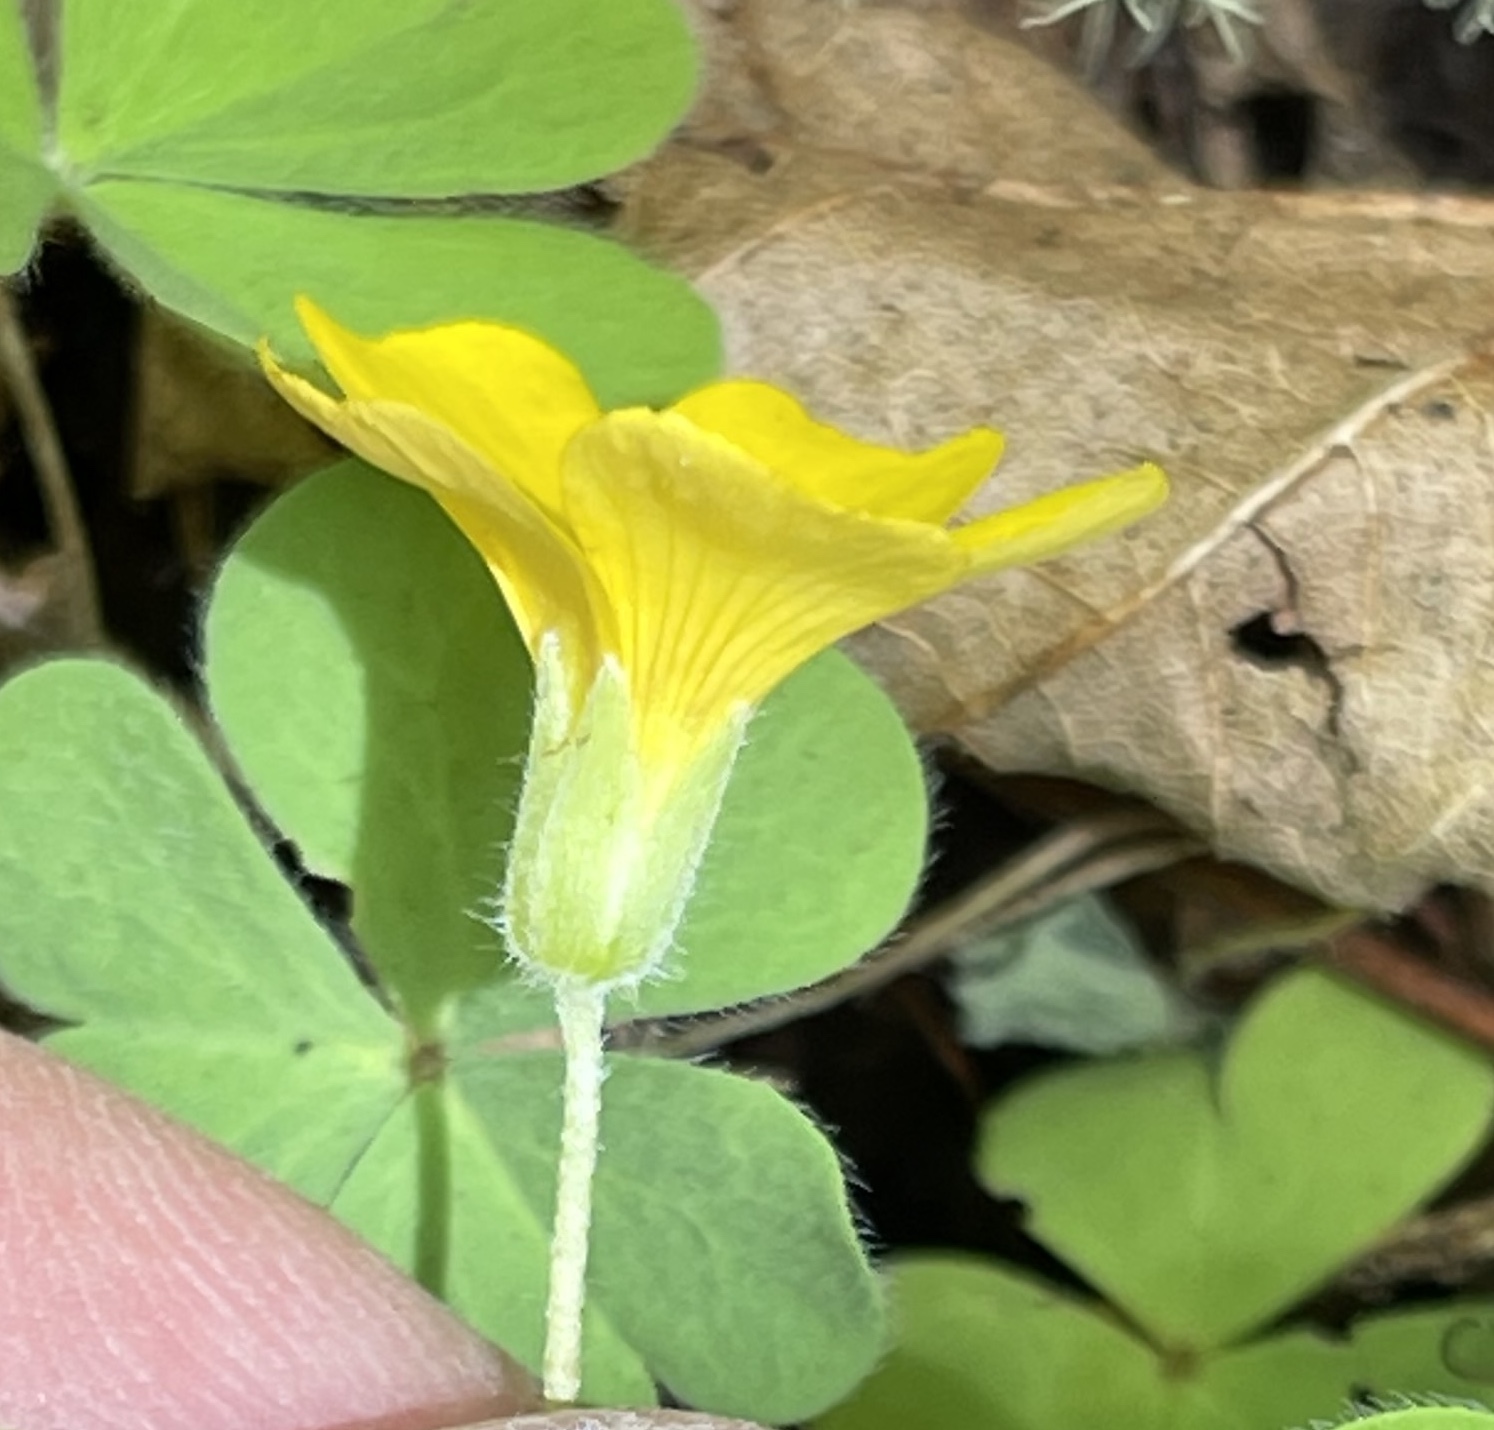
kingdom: Plantae
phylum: Tracheophyta
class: Magnoliopsida
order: Oxalidales
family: Oxalidaceae
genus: Oxalis
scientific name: Oxalis suksdorfii
